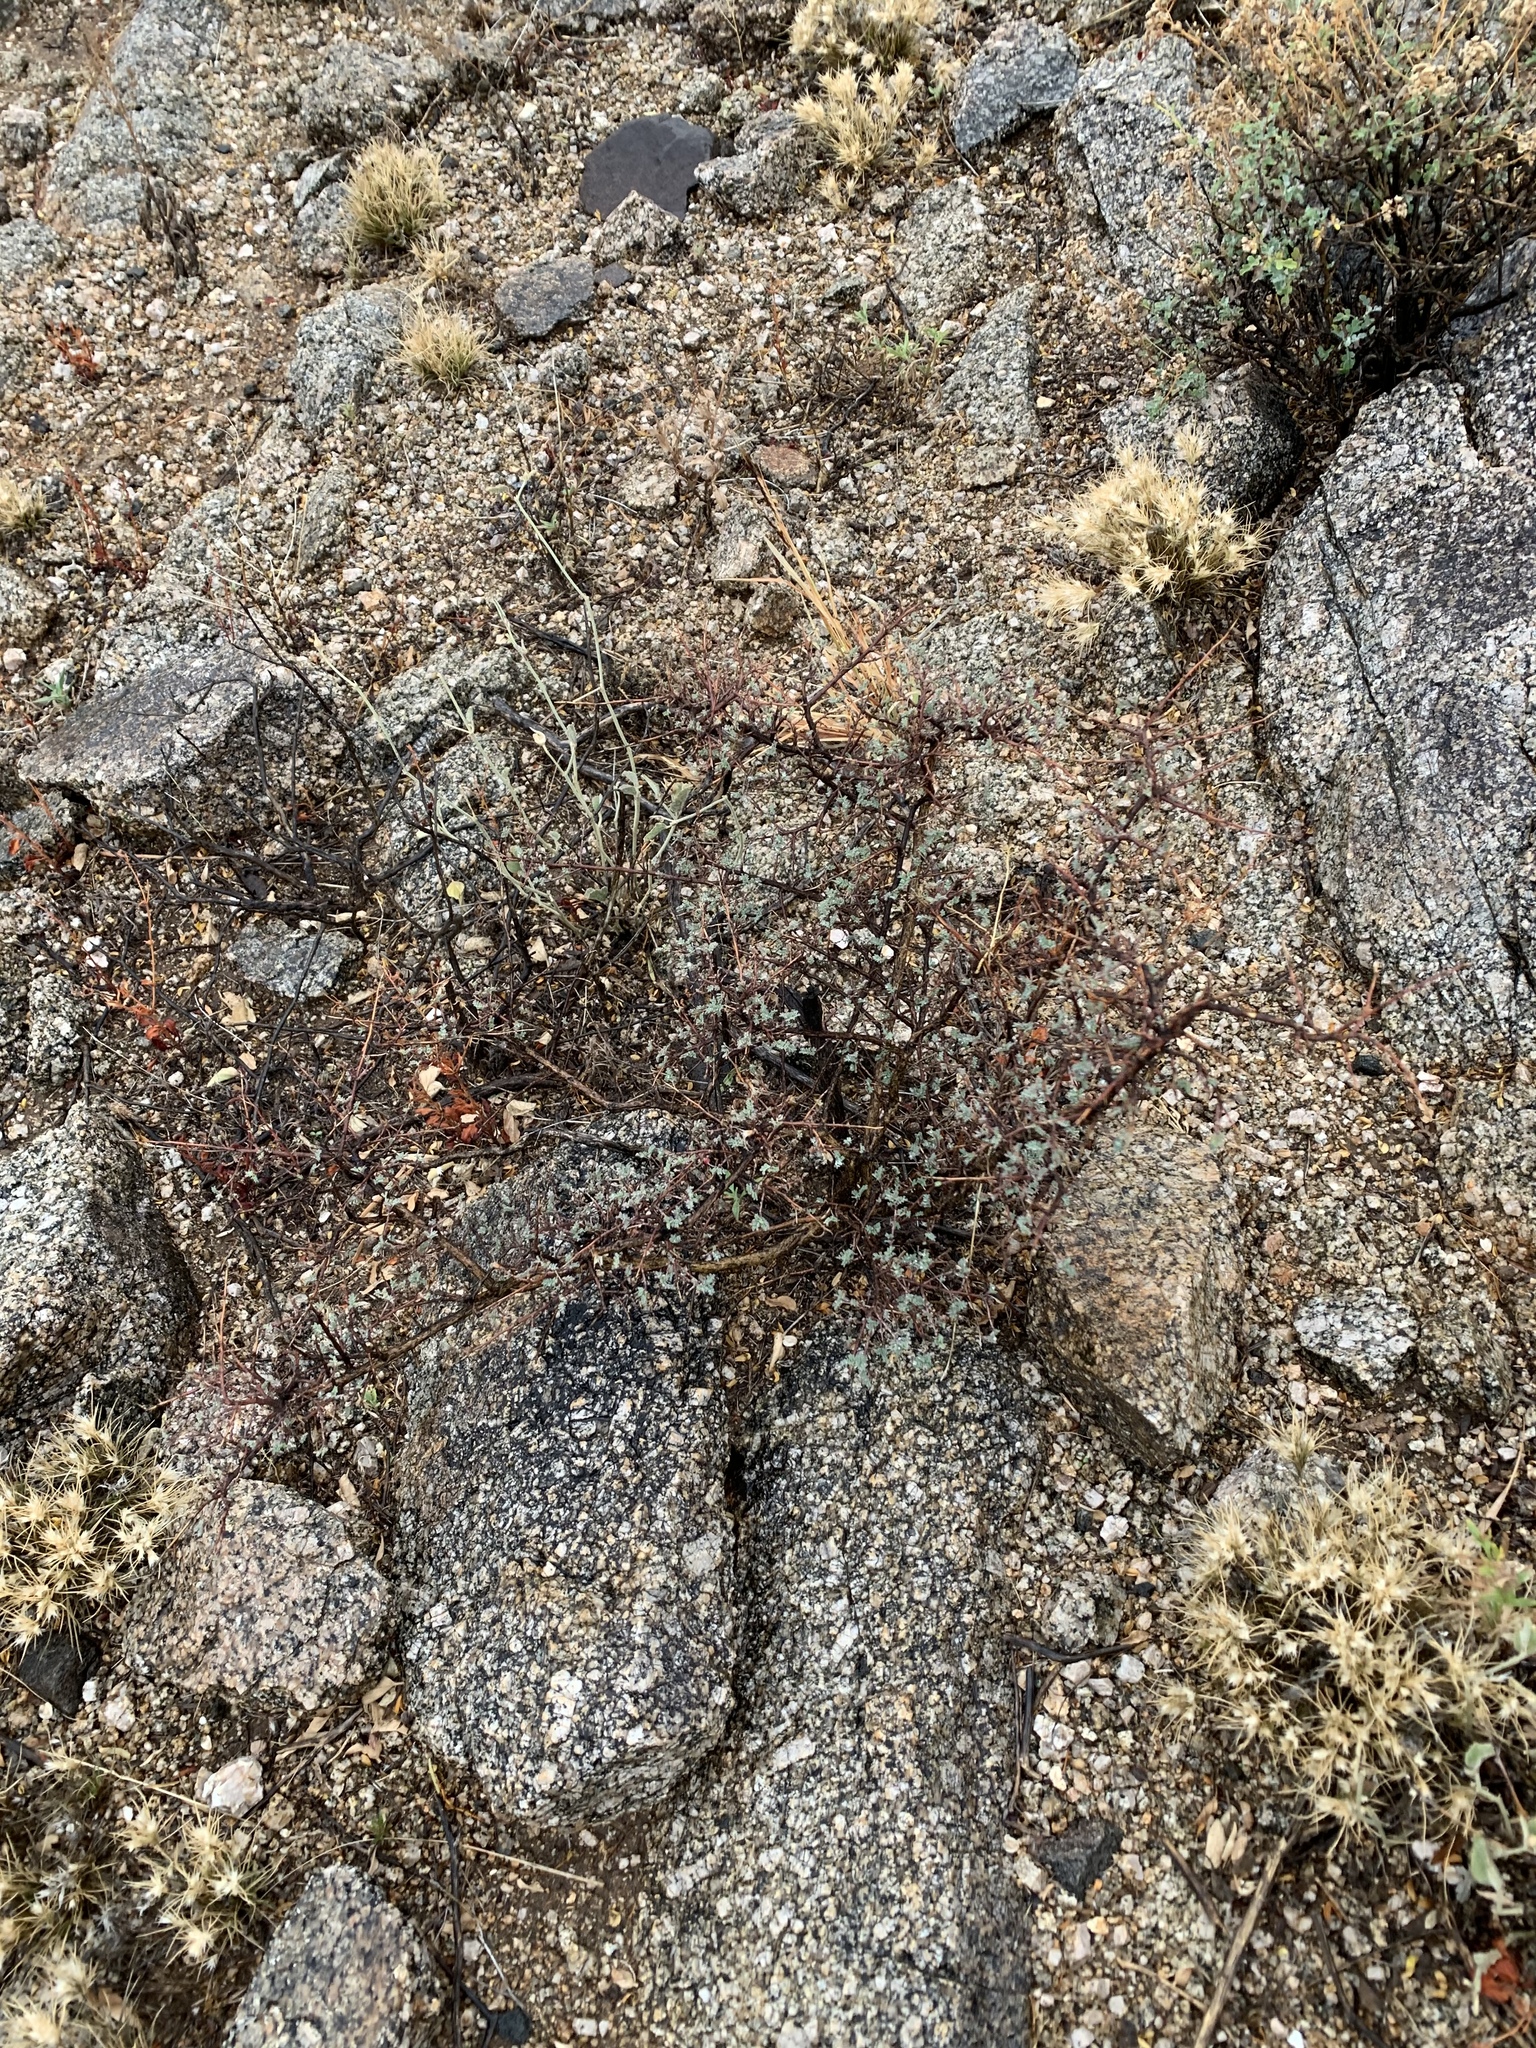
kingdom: Plantae
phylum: Tracheophyta
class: Magnoliopsida
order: Fabales
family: Fabaceae
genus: Dalea
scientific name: Dalea formosa
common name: Feather-plume dalea
